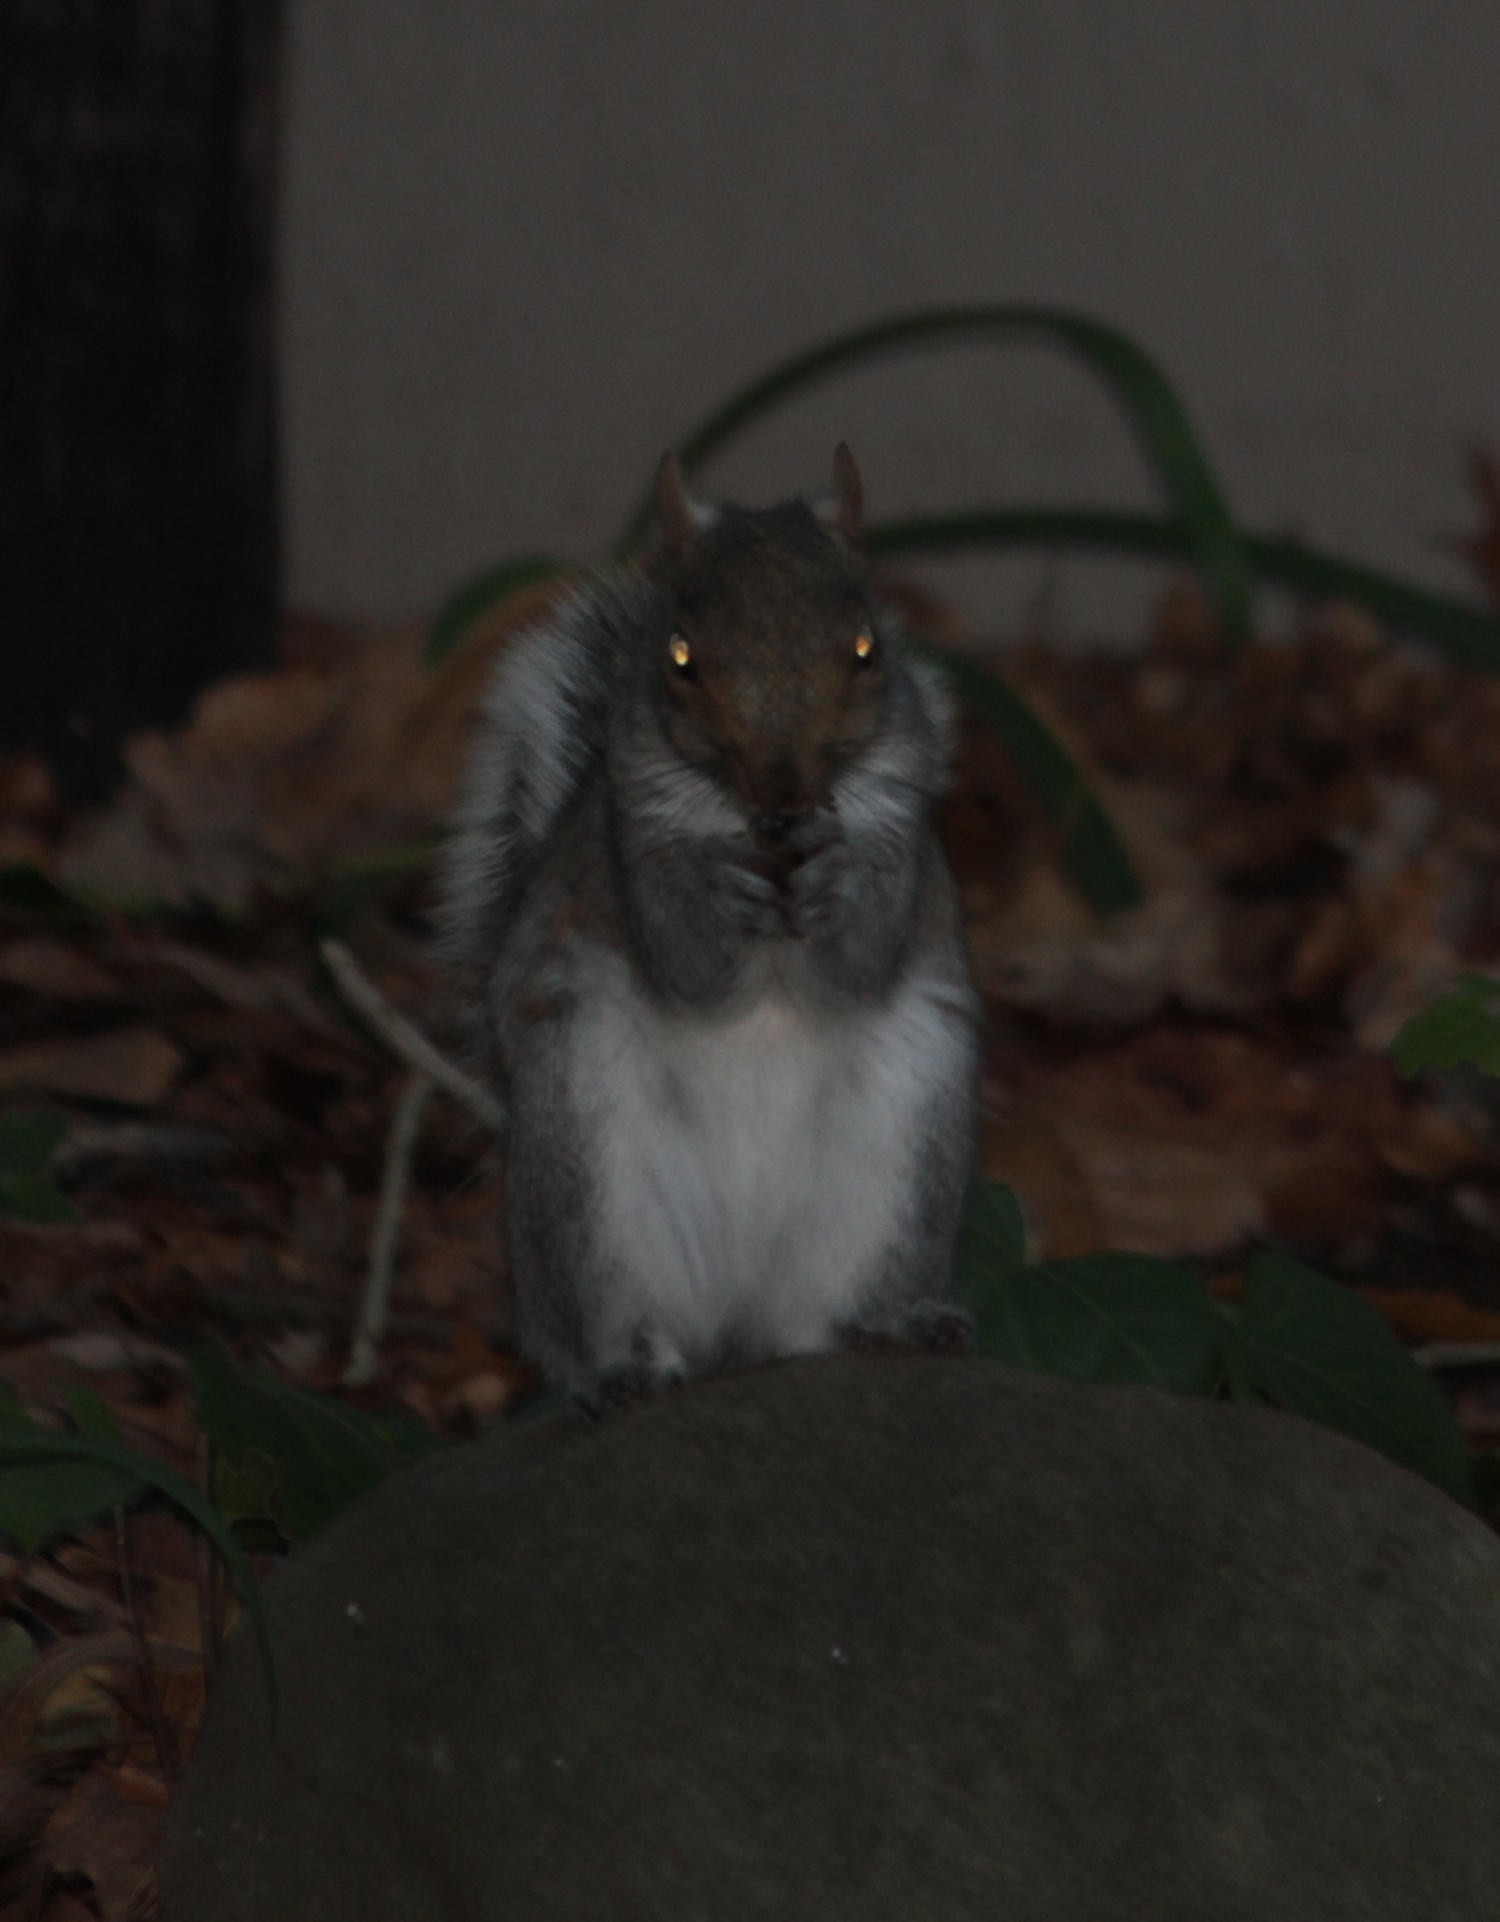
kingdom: Animalia
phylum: Chordata
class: Mammalia
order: Rodentia
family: Sciuridae
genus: Sciurus
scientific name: Sciurus carolinensis
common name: Eastern gray squirrel
